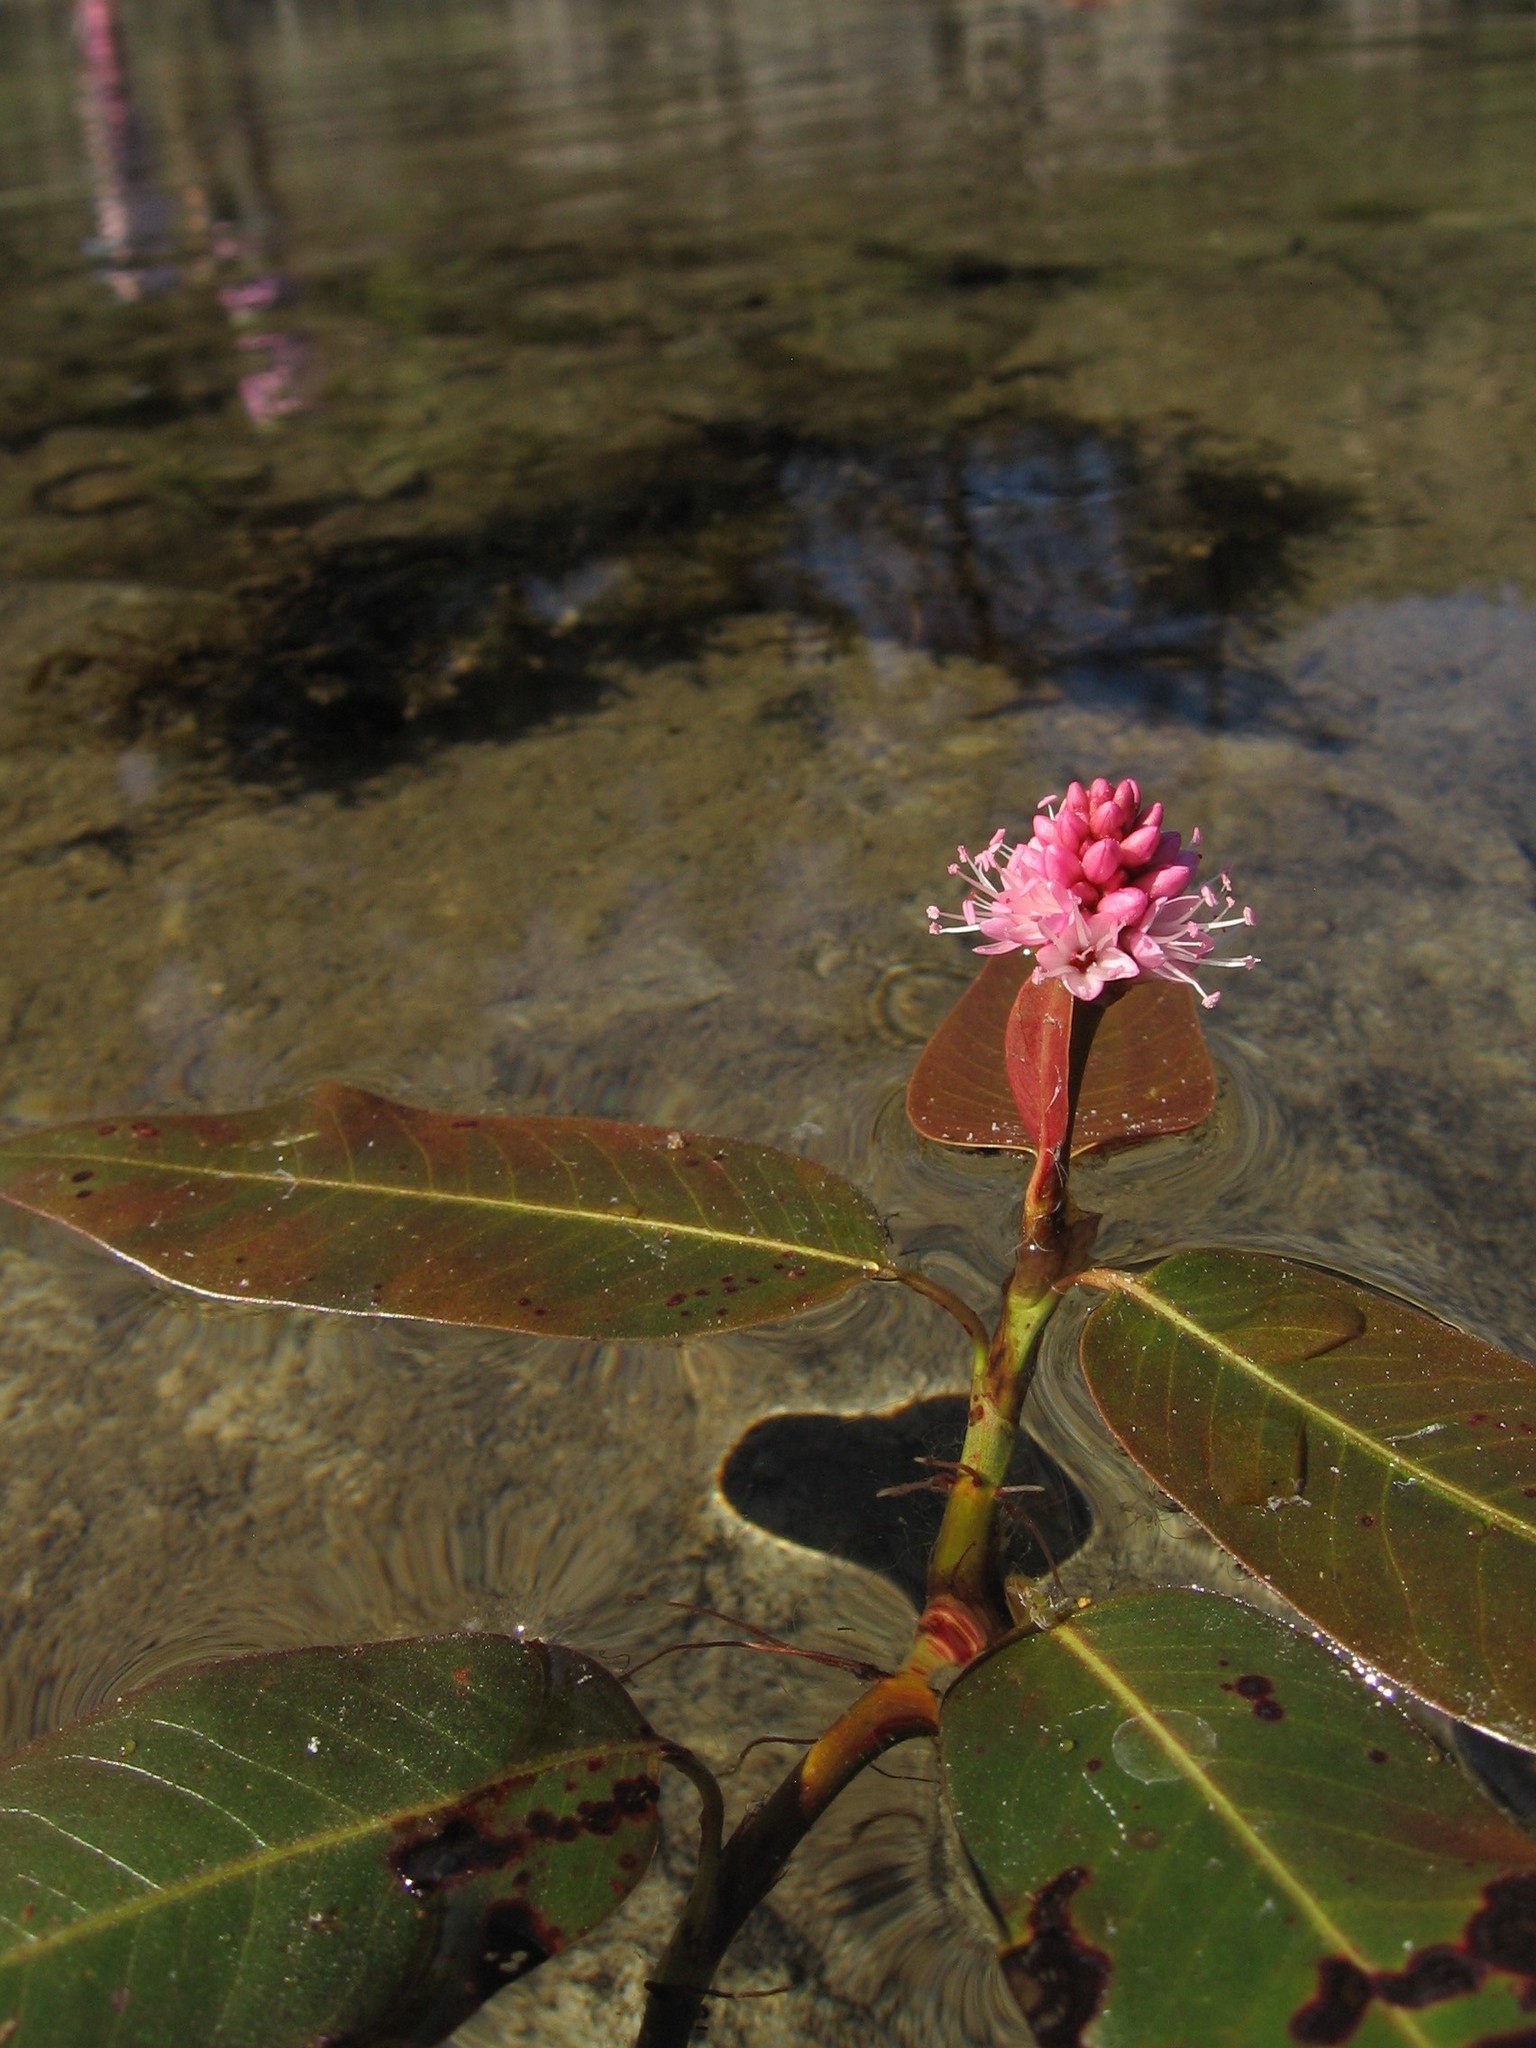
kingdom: Plantae
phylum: Tracheophyta
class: Magnoliopsida
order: Caryophyllales
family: Polygonaceae
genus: Persicaria
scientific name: Persicaria amphibia
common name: Amphibious bistort
